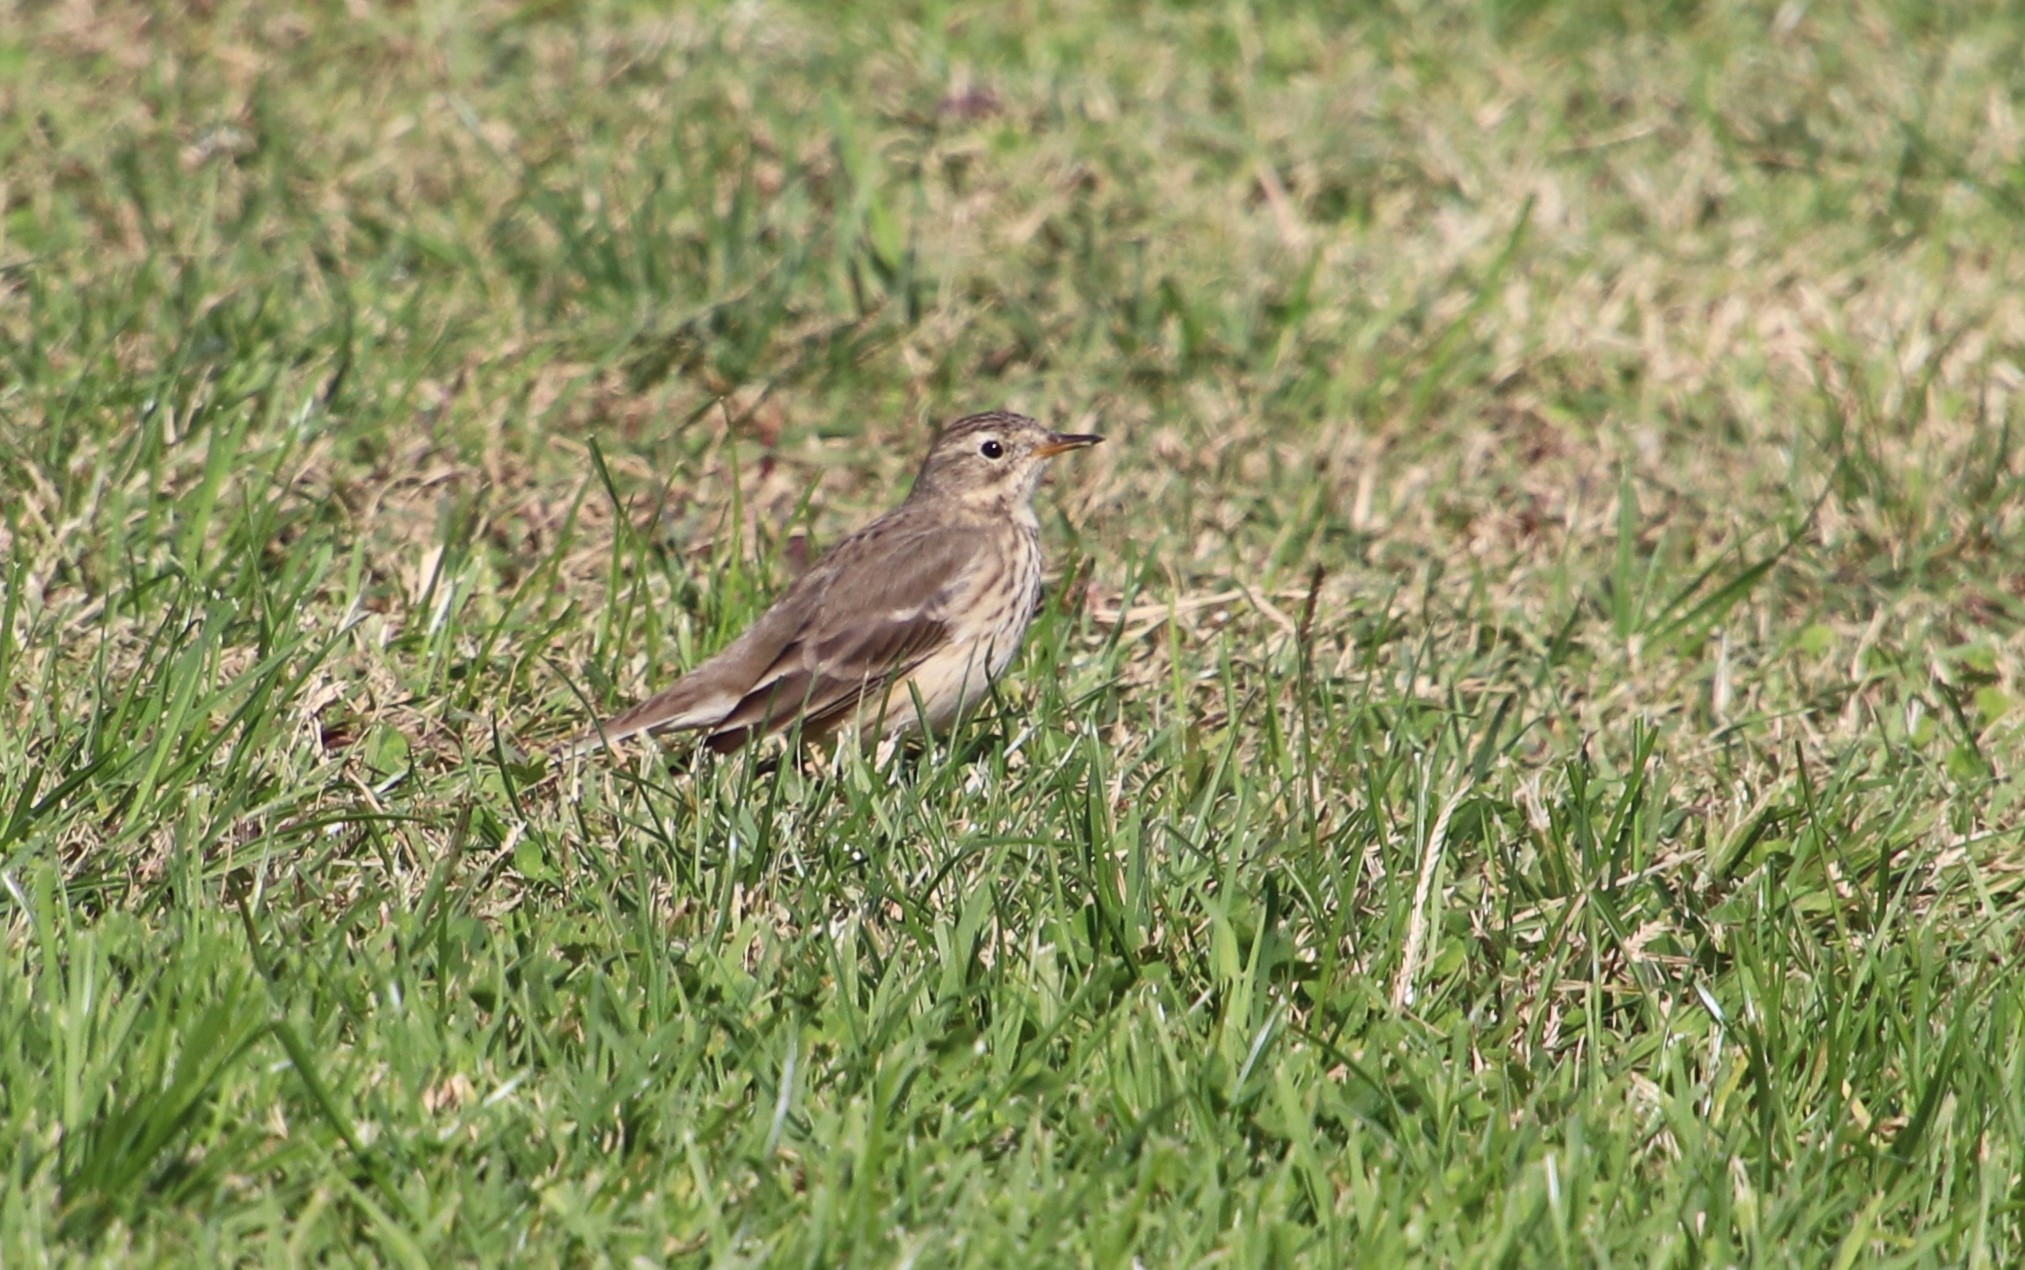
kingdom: Animalia
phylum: Chordata
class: Aves
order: Passeriformes
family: Motacillidae
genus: Anthus
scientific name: Anthus rubescens
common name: Buff-bellied pipit
